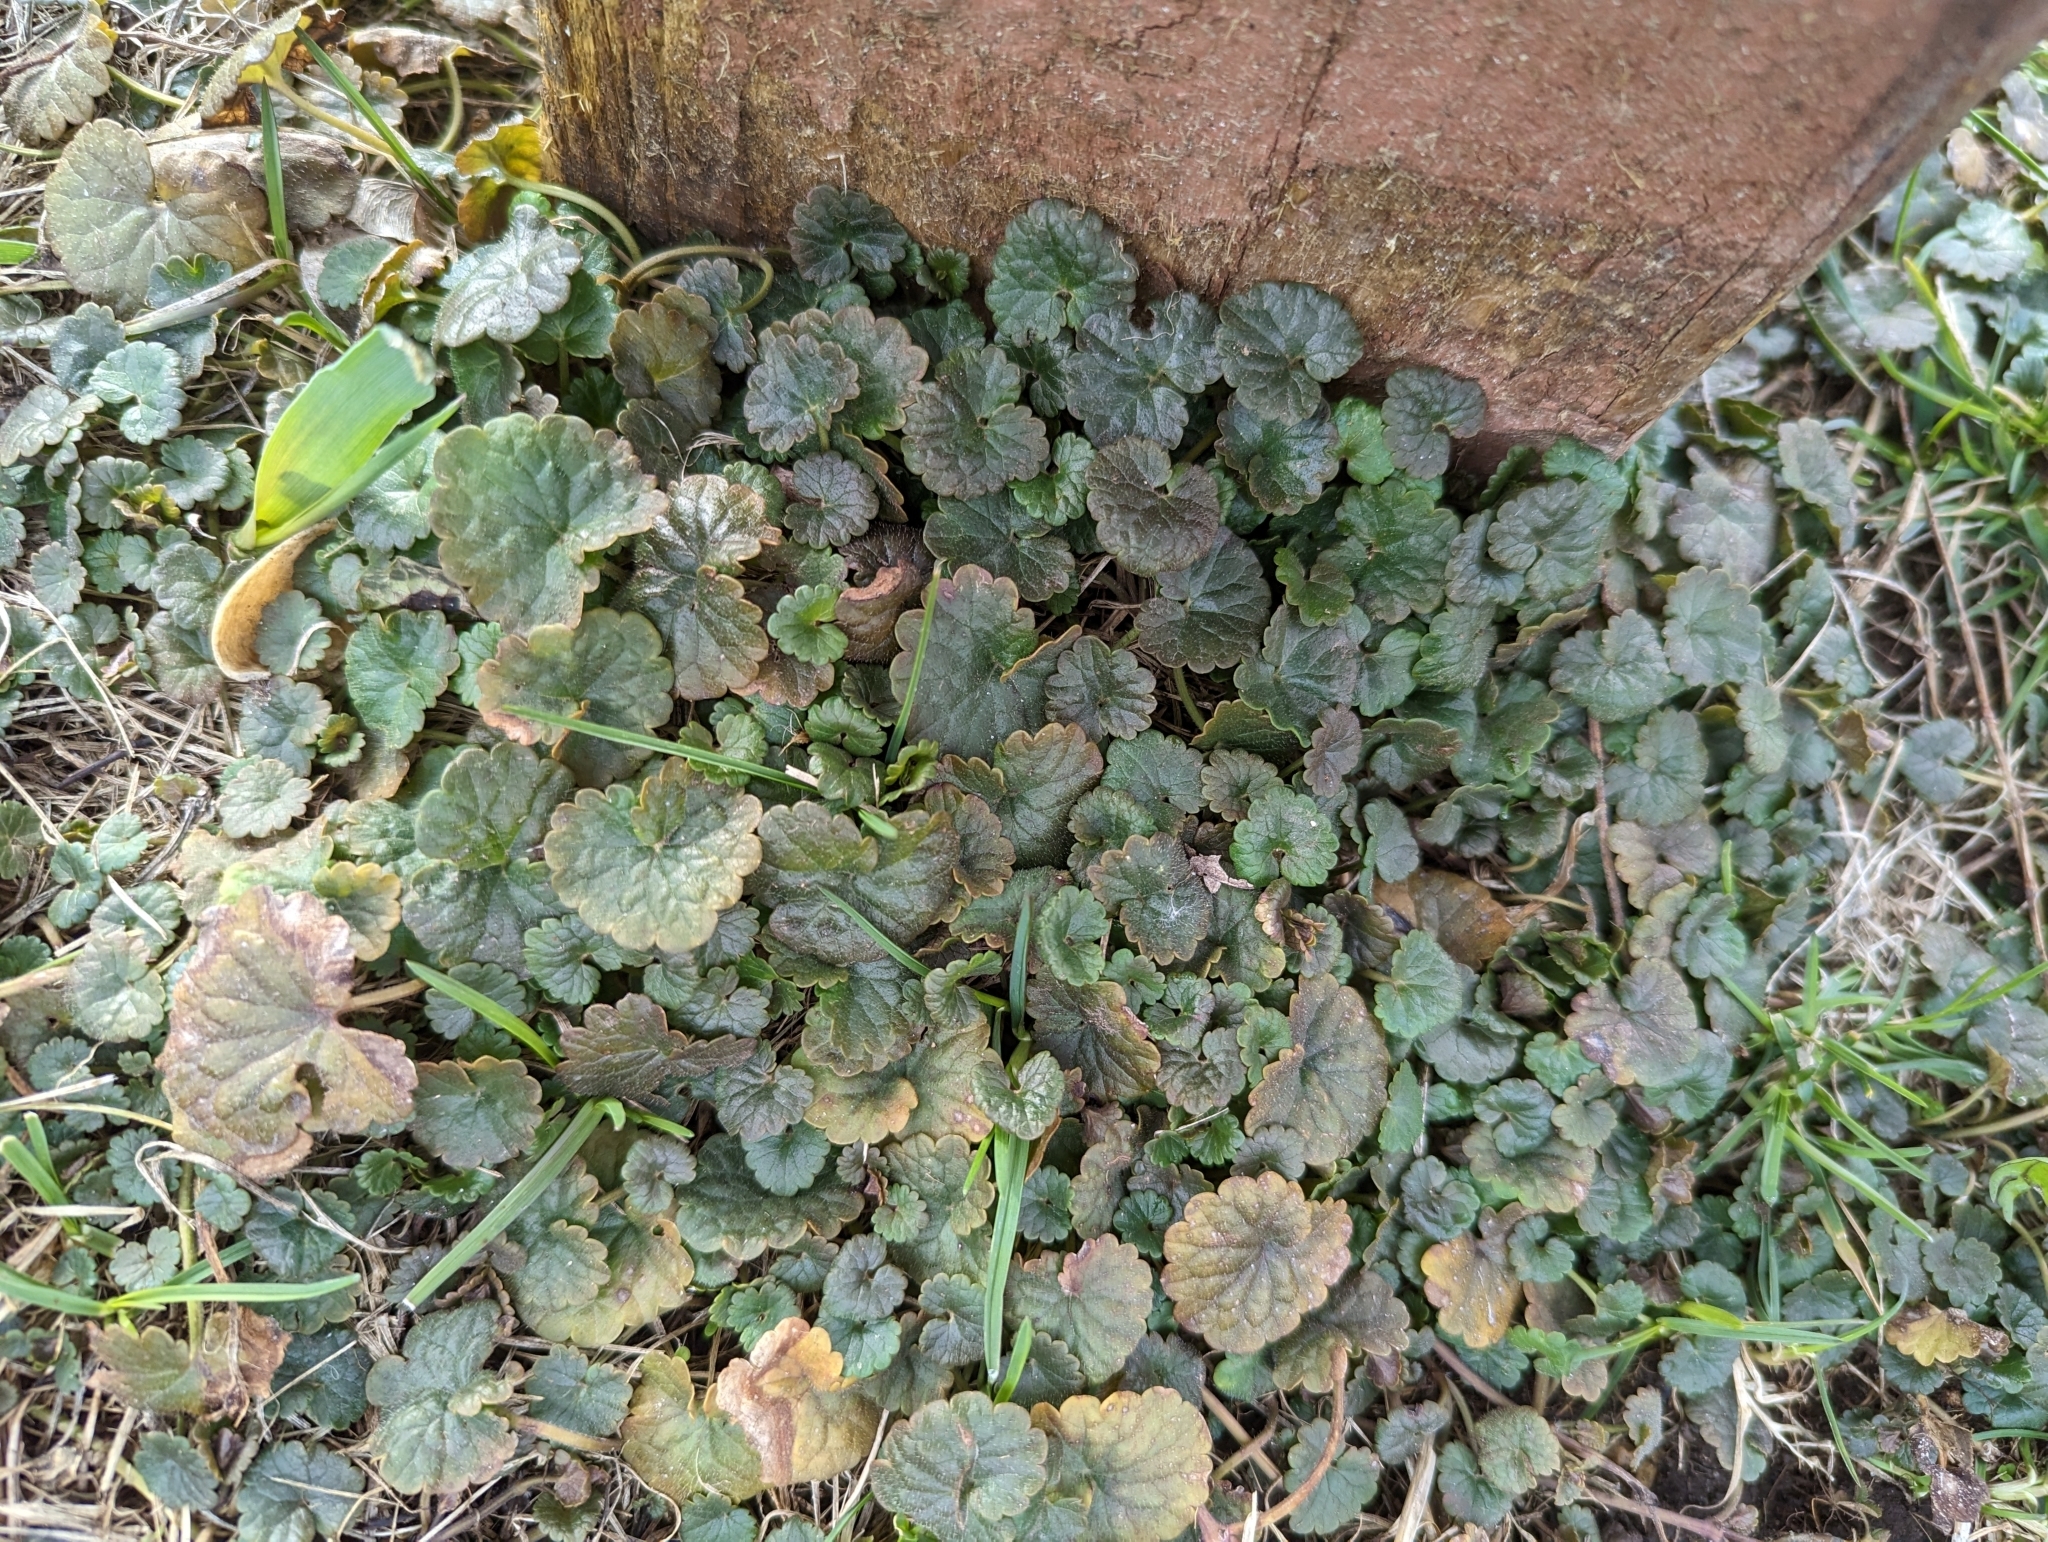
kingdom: Plantae
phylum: Tracheophyta
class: Magnoliopsida
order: Lamiales
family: Lamiaceae
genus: Glechoma
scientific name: Glechoma hederacea
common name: Ground ivy
